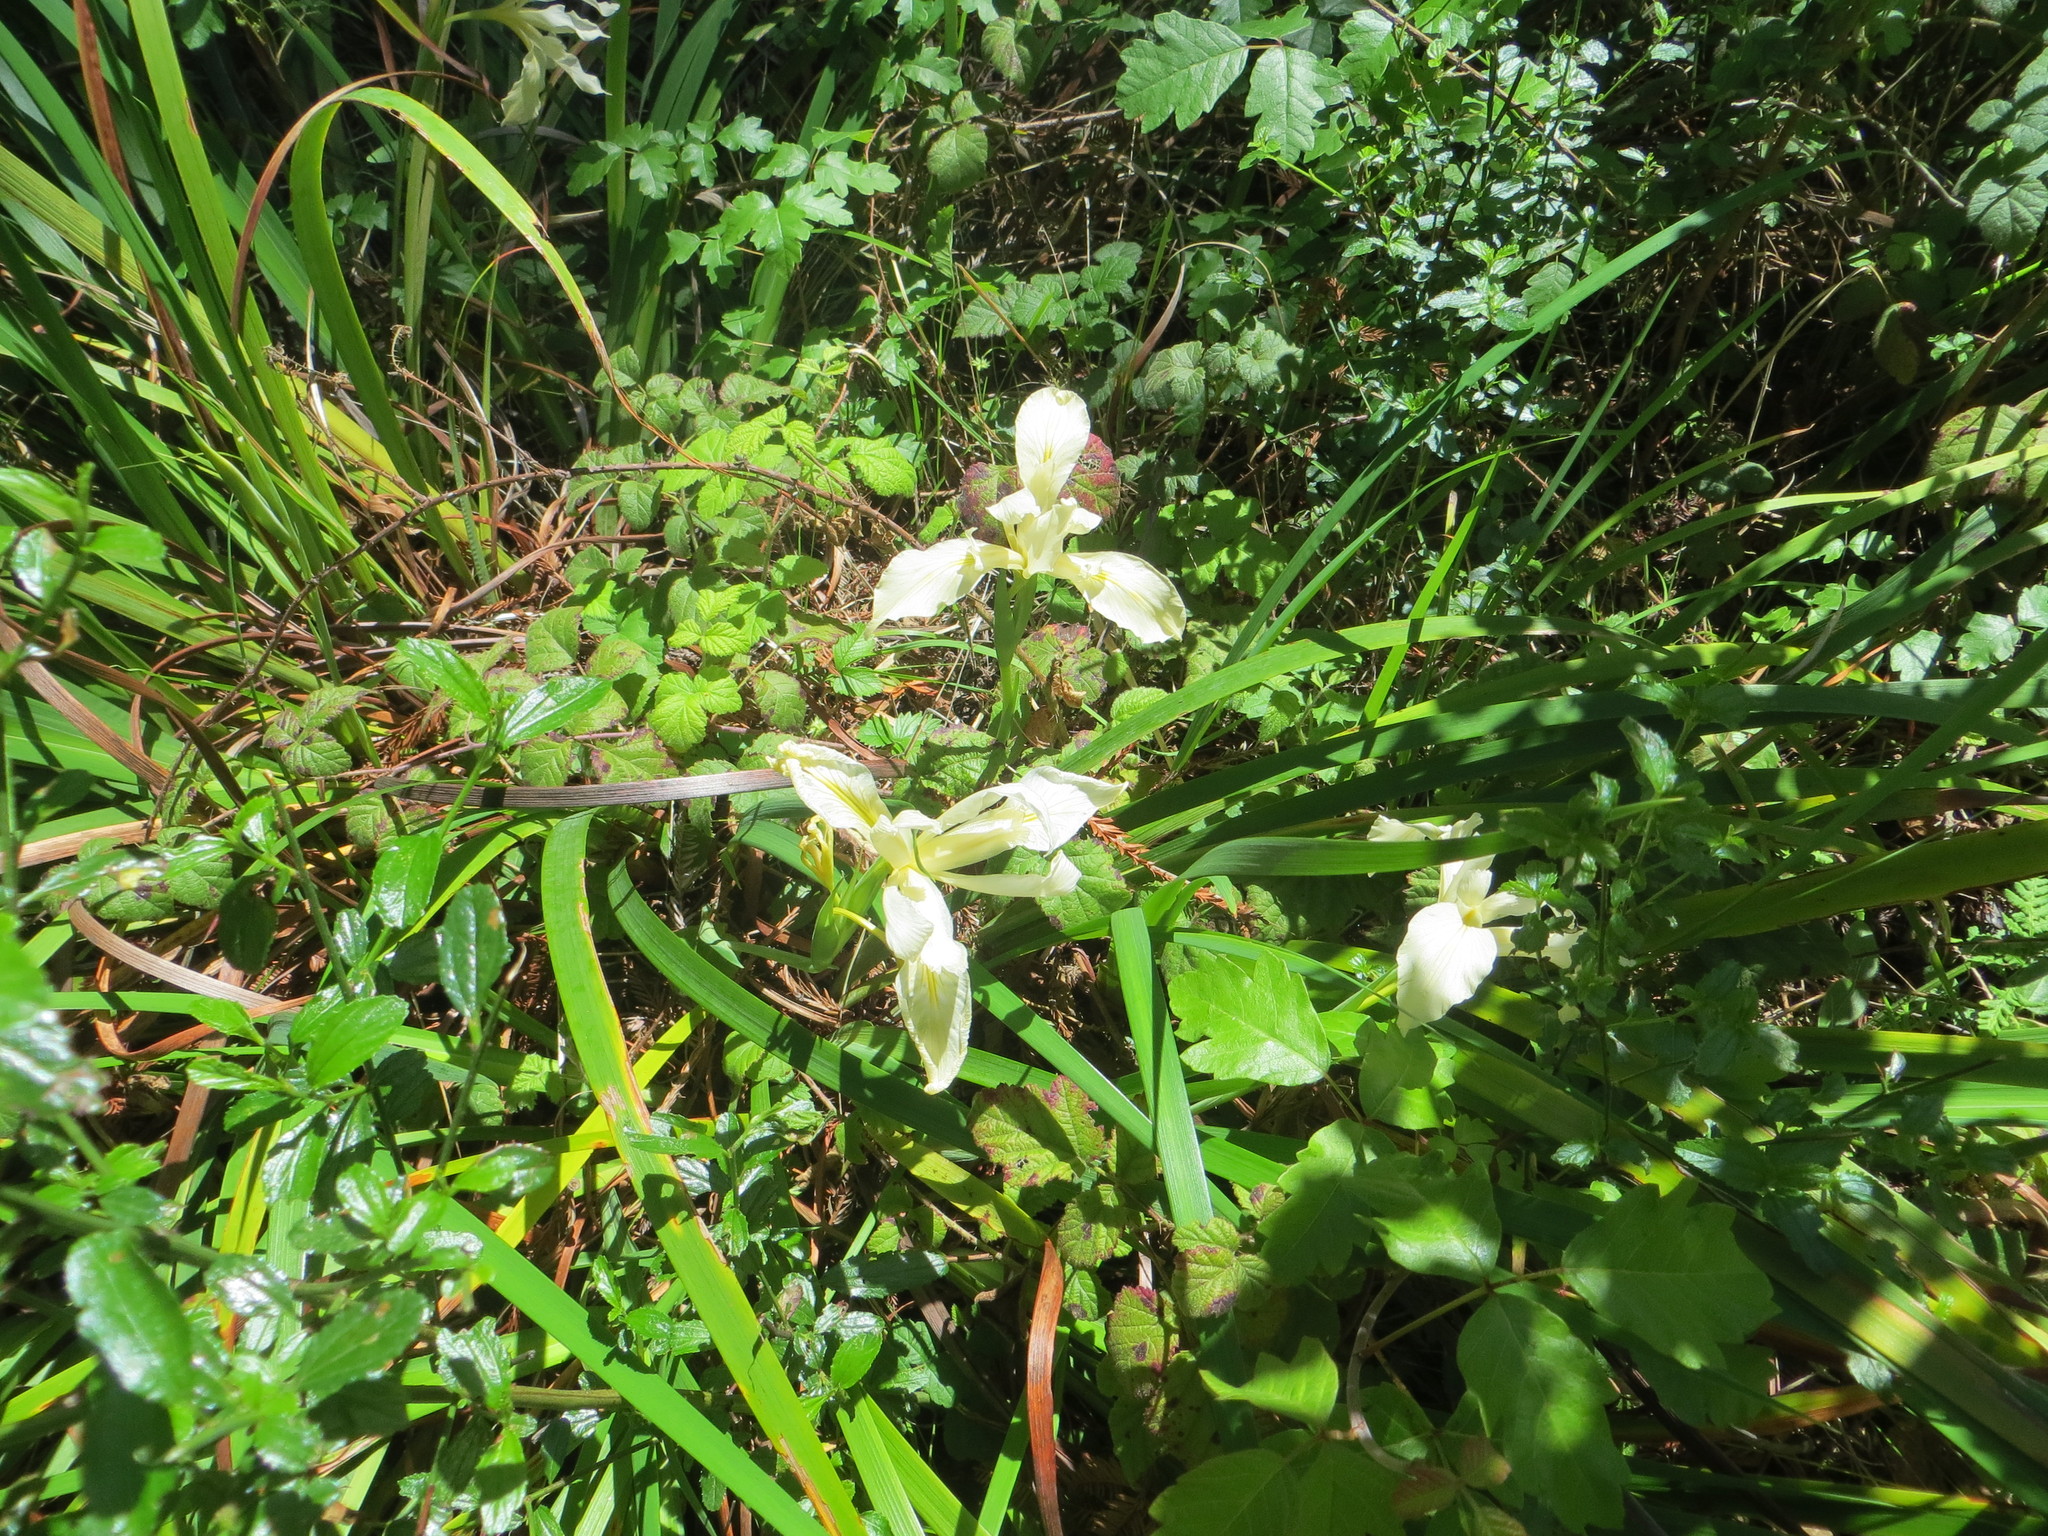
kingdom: Plantae
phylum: Tracheophyta
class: Liliopsida
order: Asparagales
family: Iridaceae
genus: Iris
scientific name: Iris douglasiana
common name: Marin iris
